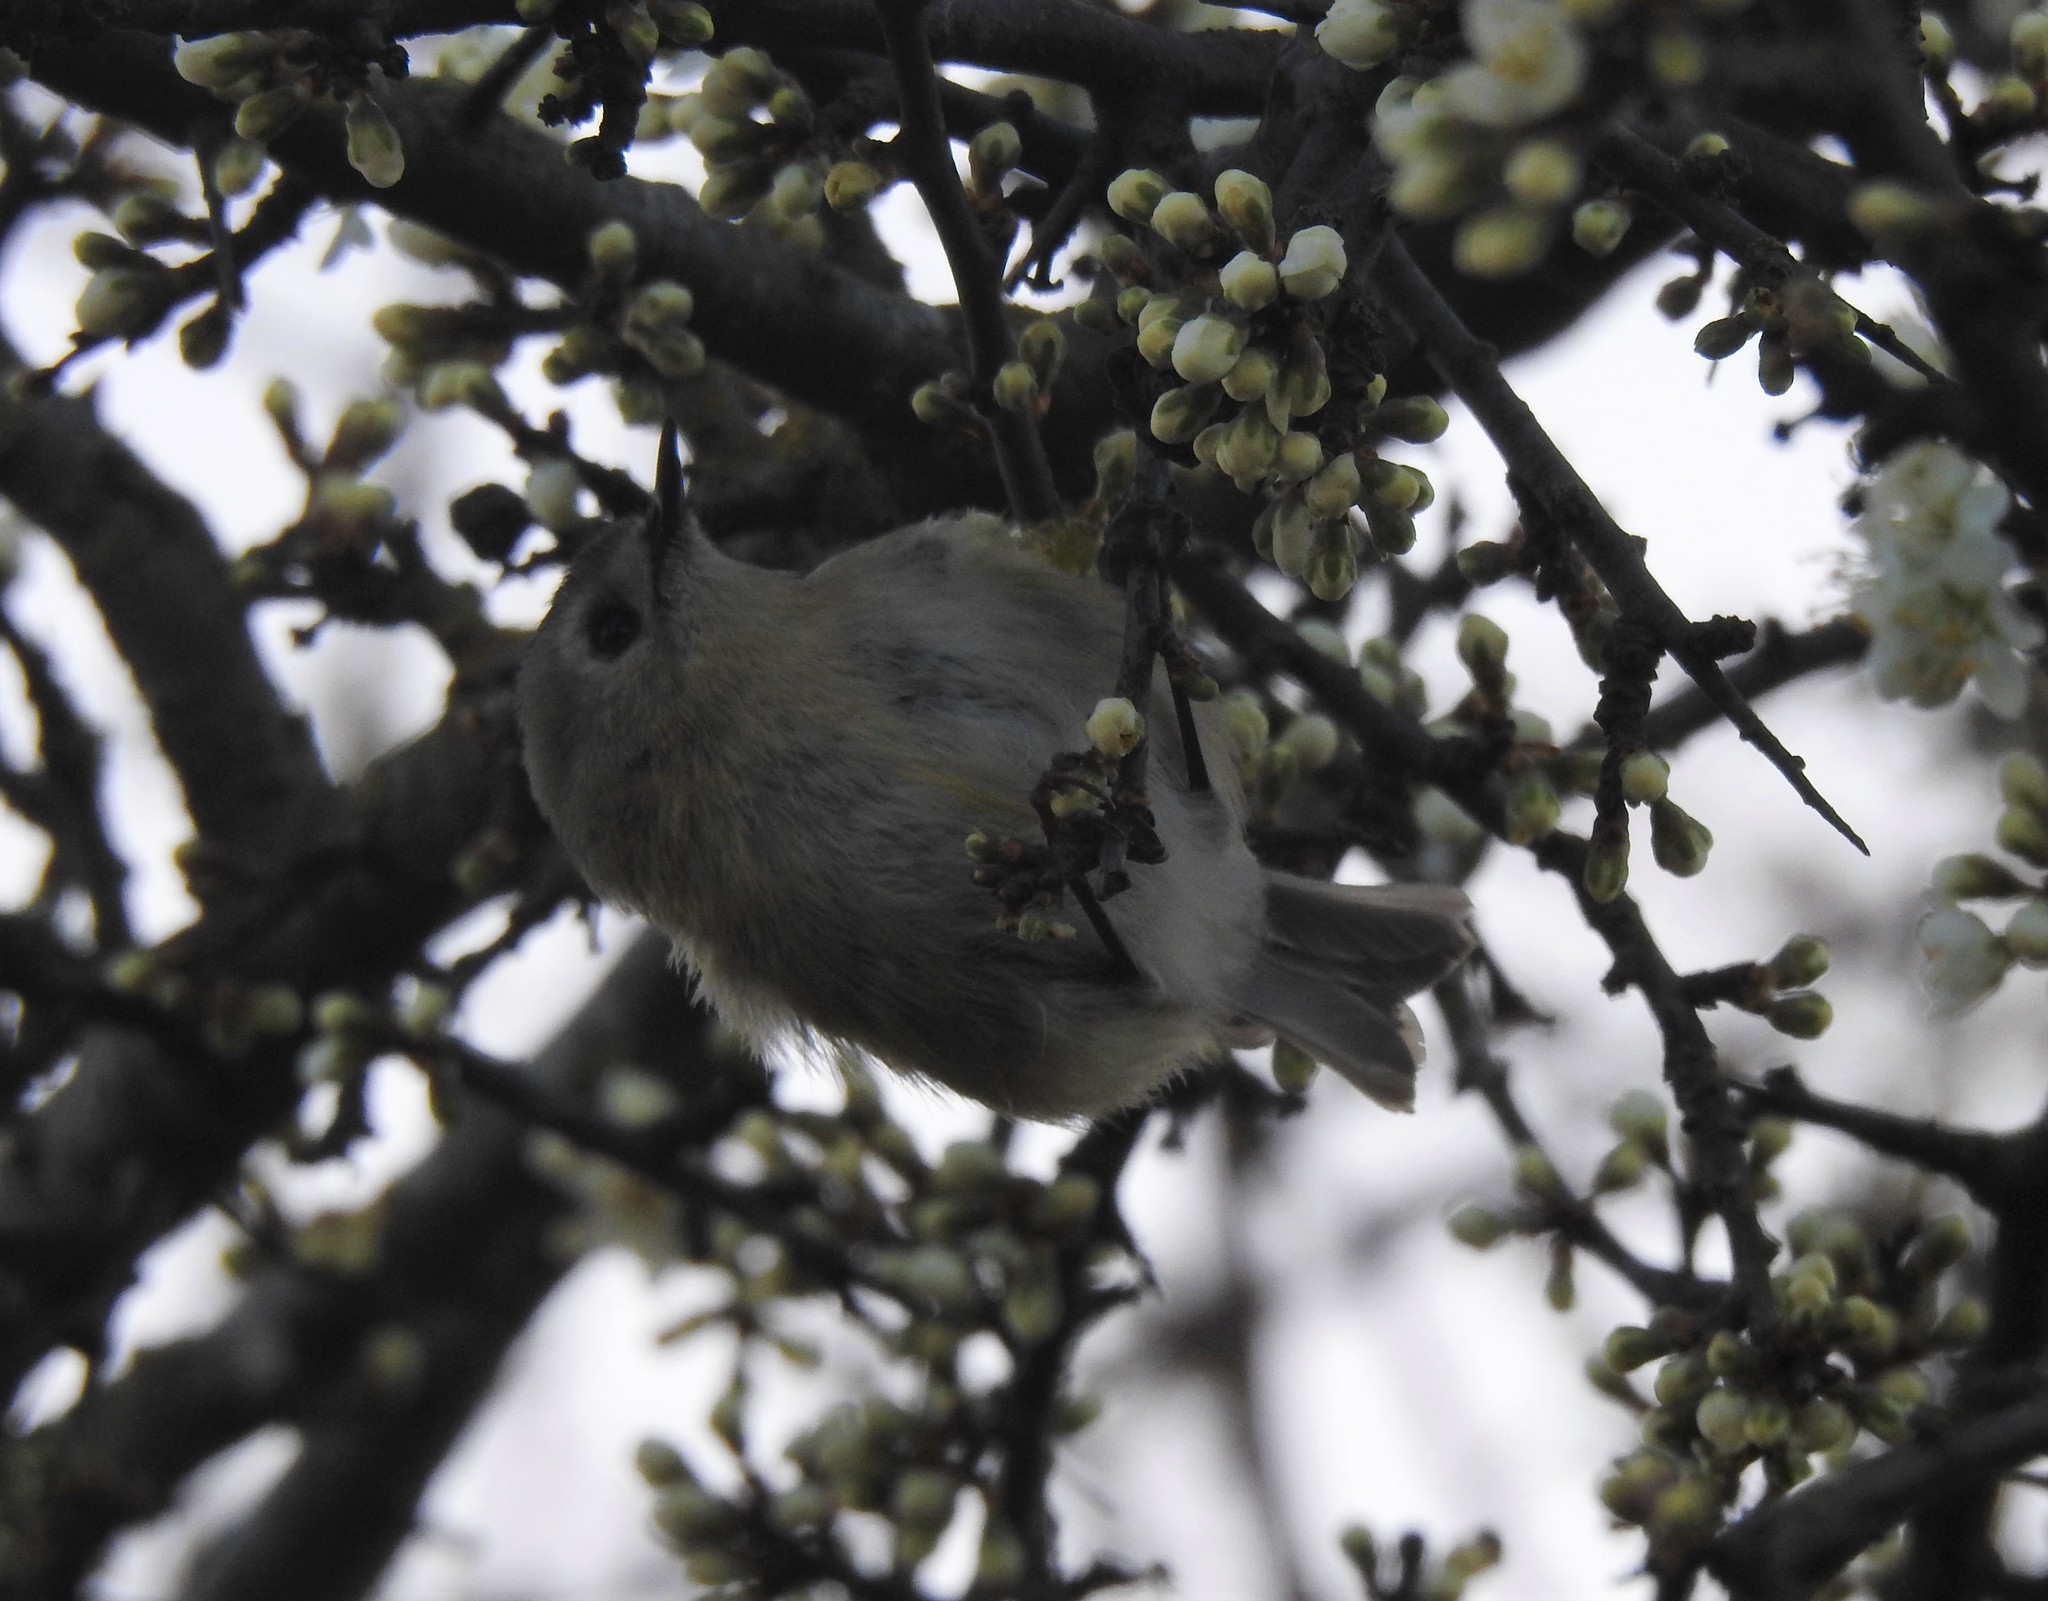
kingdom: Animalia
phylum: Chordata
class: Aves
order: Passeriformes
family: Regulidae
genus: Regulus
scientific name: Regulus regulus
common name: Goldcrest
